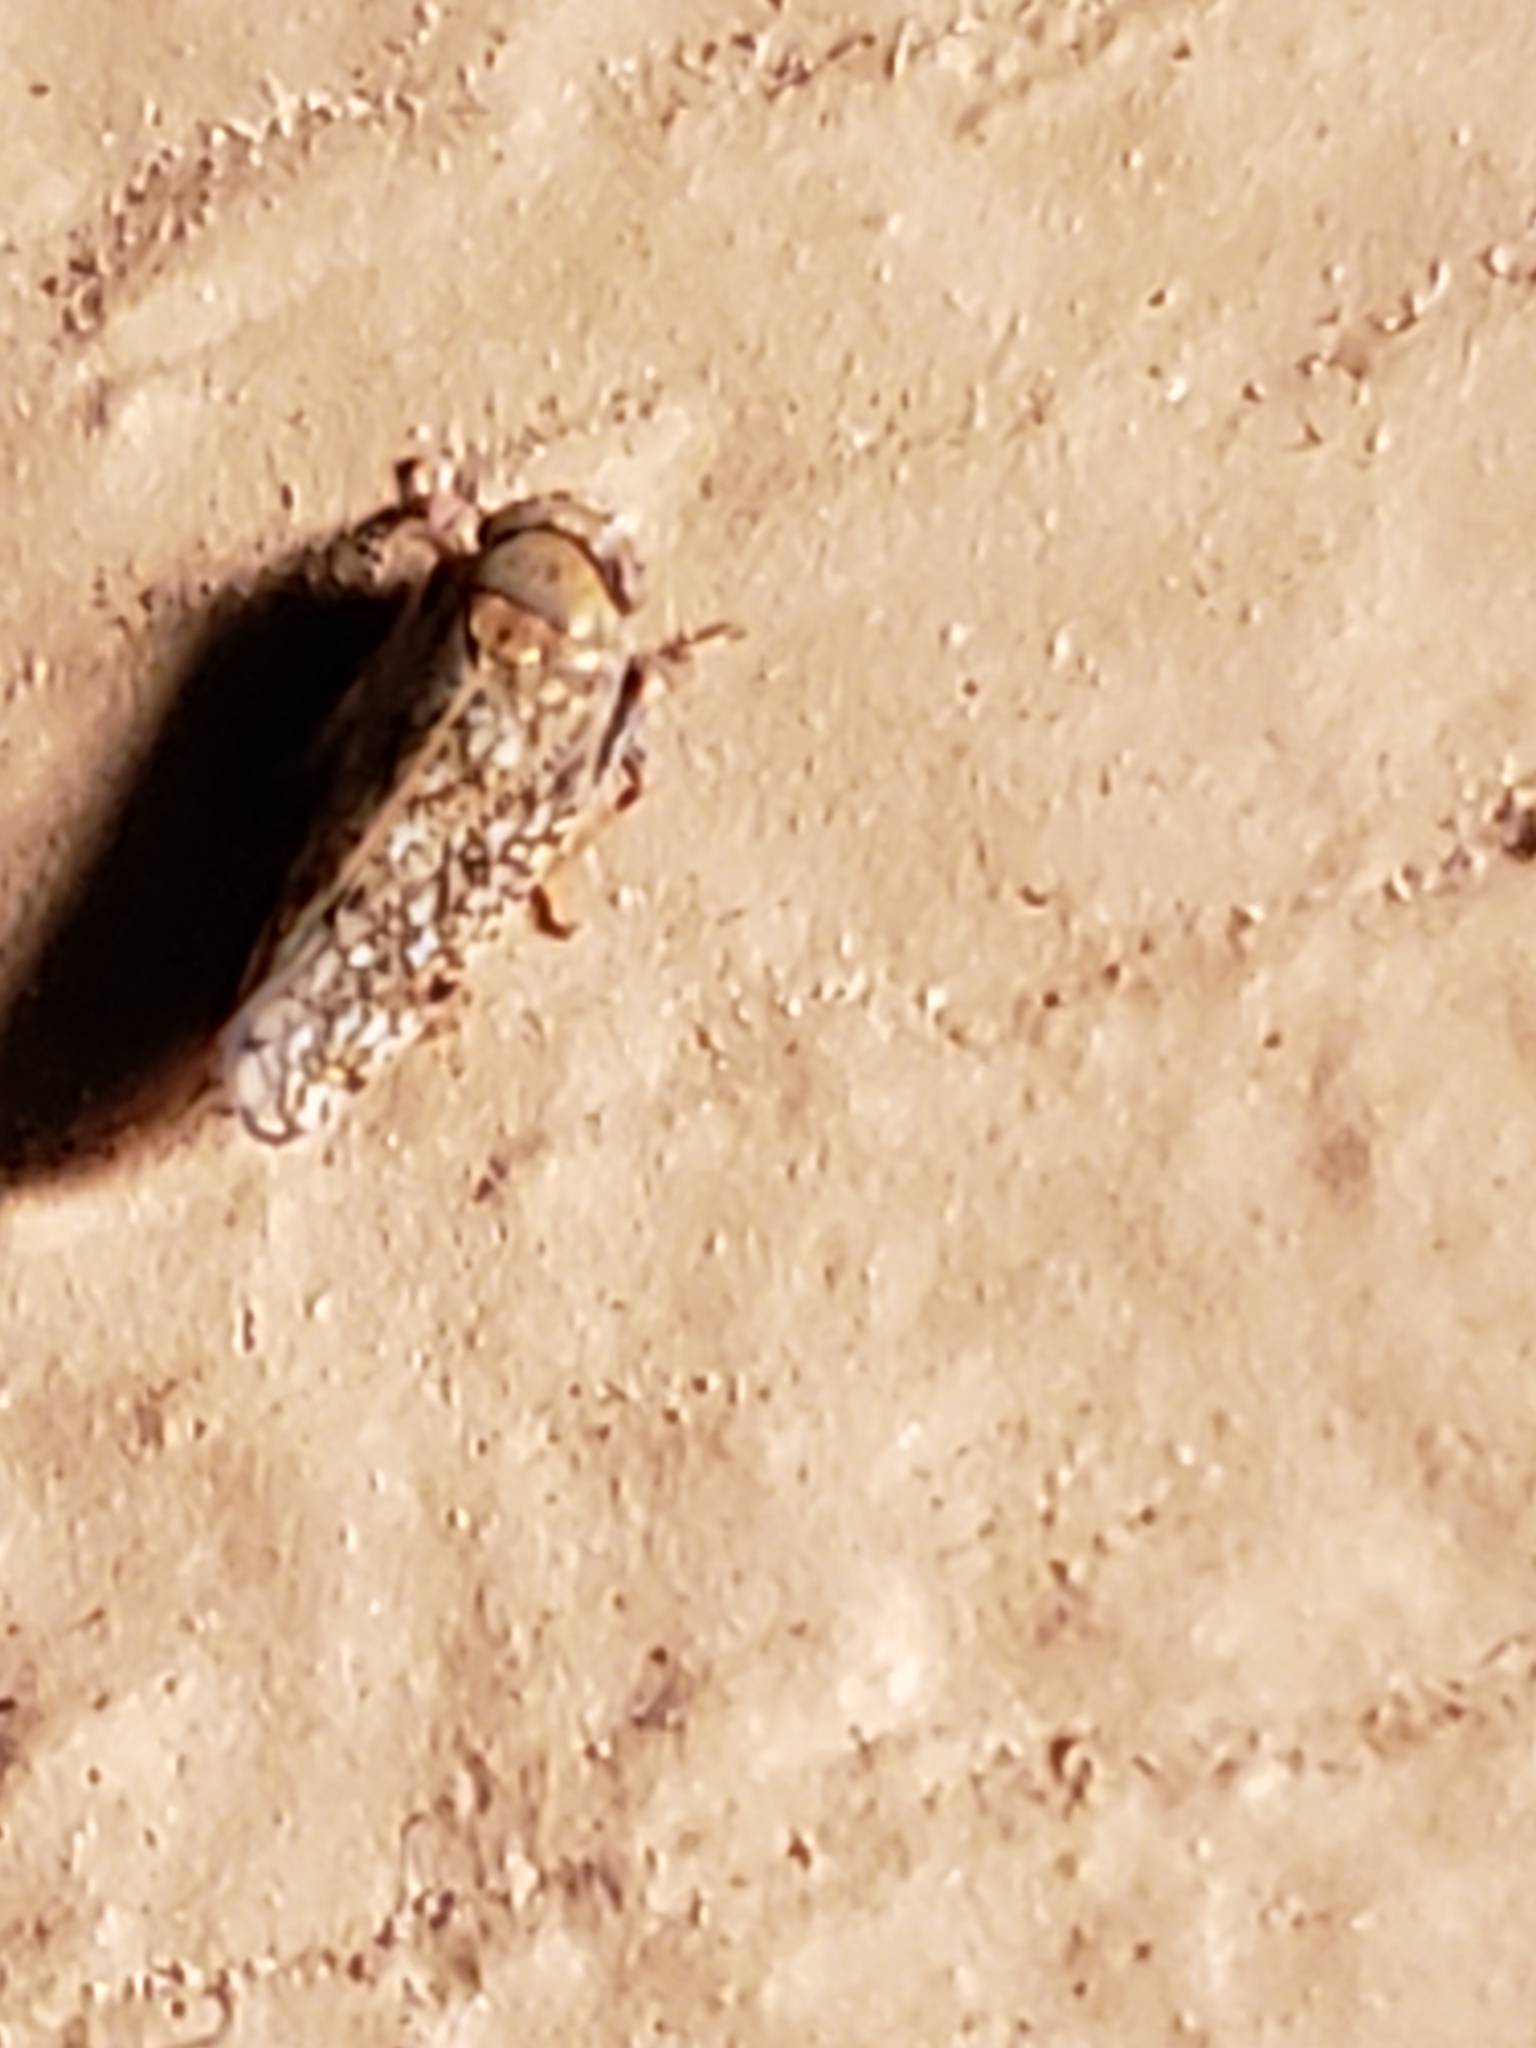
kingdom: Animalia
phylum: Arthropoda
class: Insecta
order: Hemiptera
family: Cicadellidae
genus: Orientus
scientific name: Orientus ishidae
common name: Japanese leafhopper
